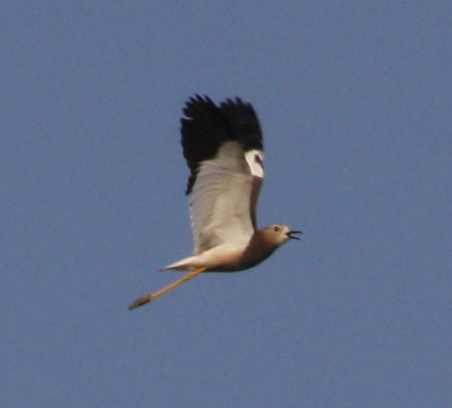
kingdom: Animalia
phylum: Chordata
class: Aves
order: Charadriiformes
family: Charadriidae
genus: Vanellus
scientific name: Vanellus leucurus
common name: White-tailed lapwing
